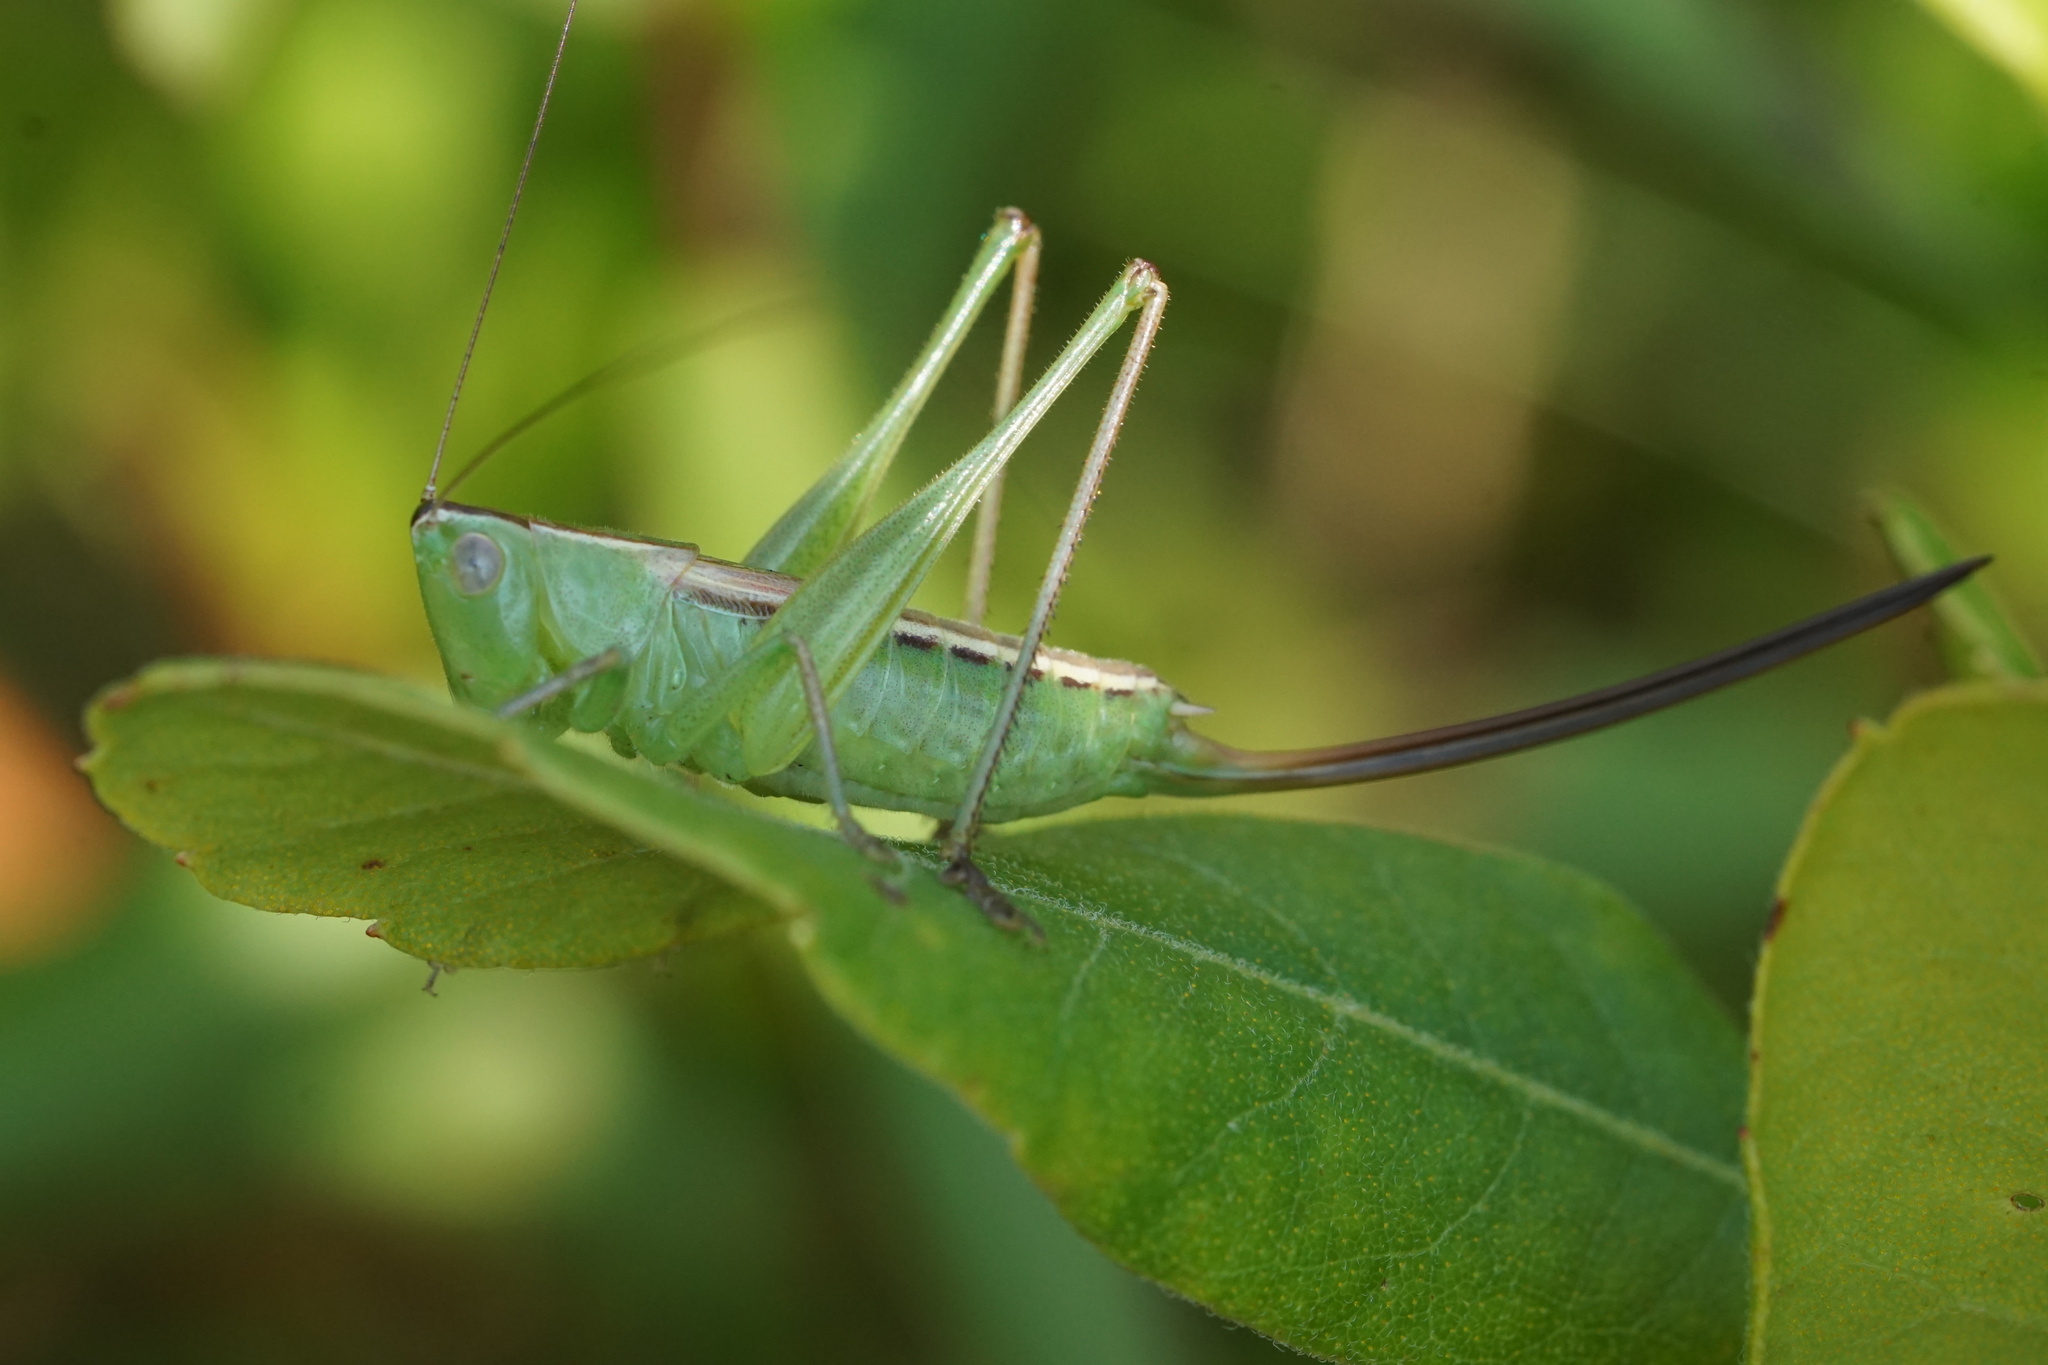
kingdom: Animalia
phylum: Arthropoda
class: Insecta
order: Orthoptera
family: Tettigoniidae
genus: Conocephalus
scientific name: Conocephalus strictus
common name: Straight-lanced katydid
